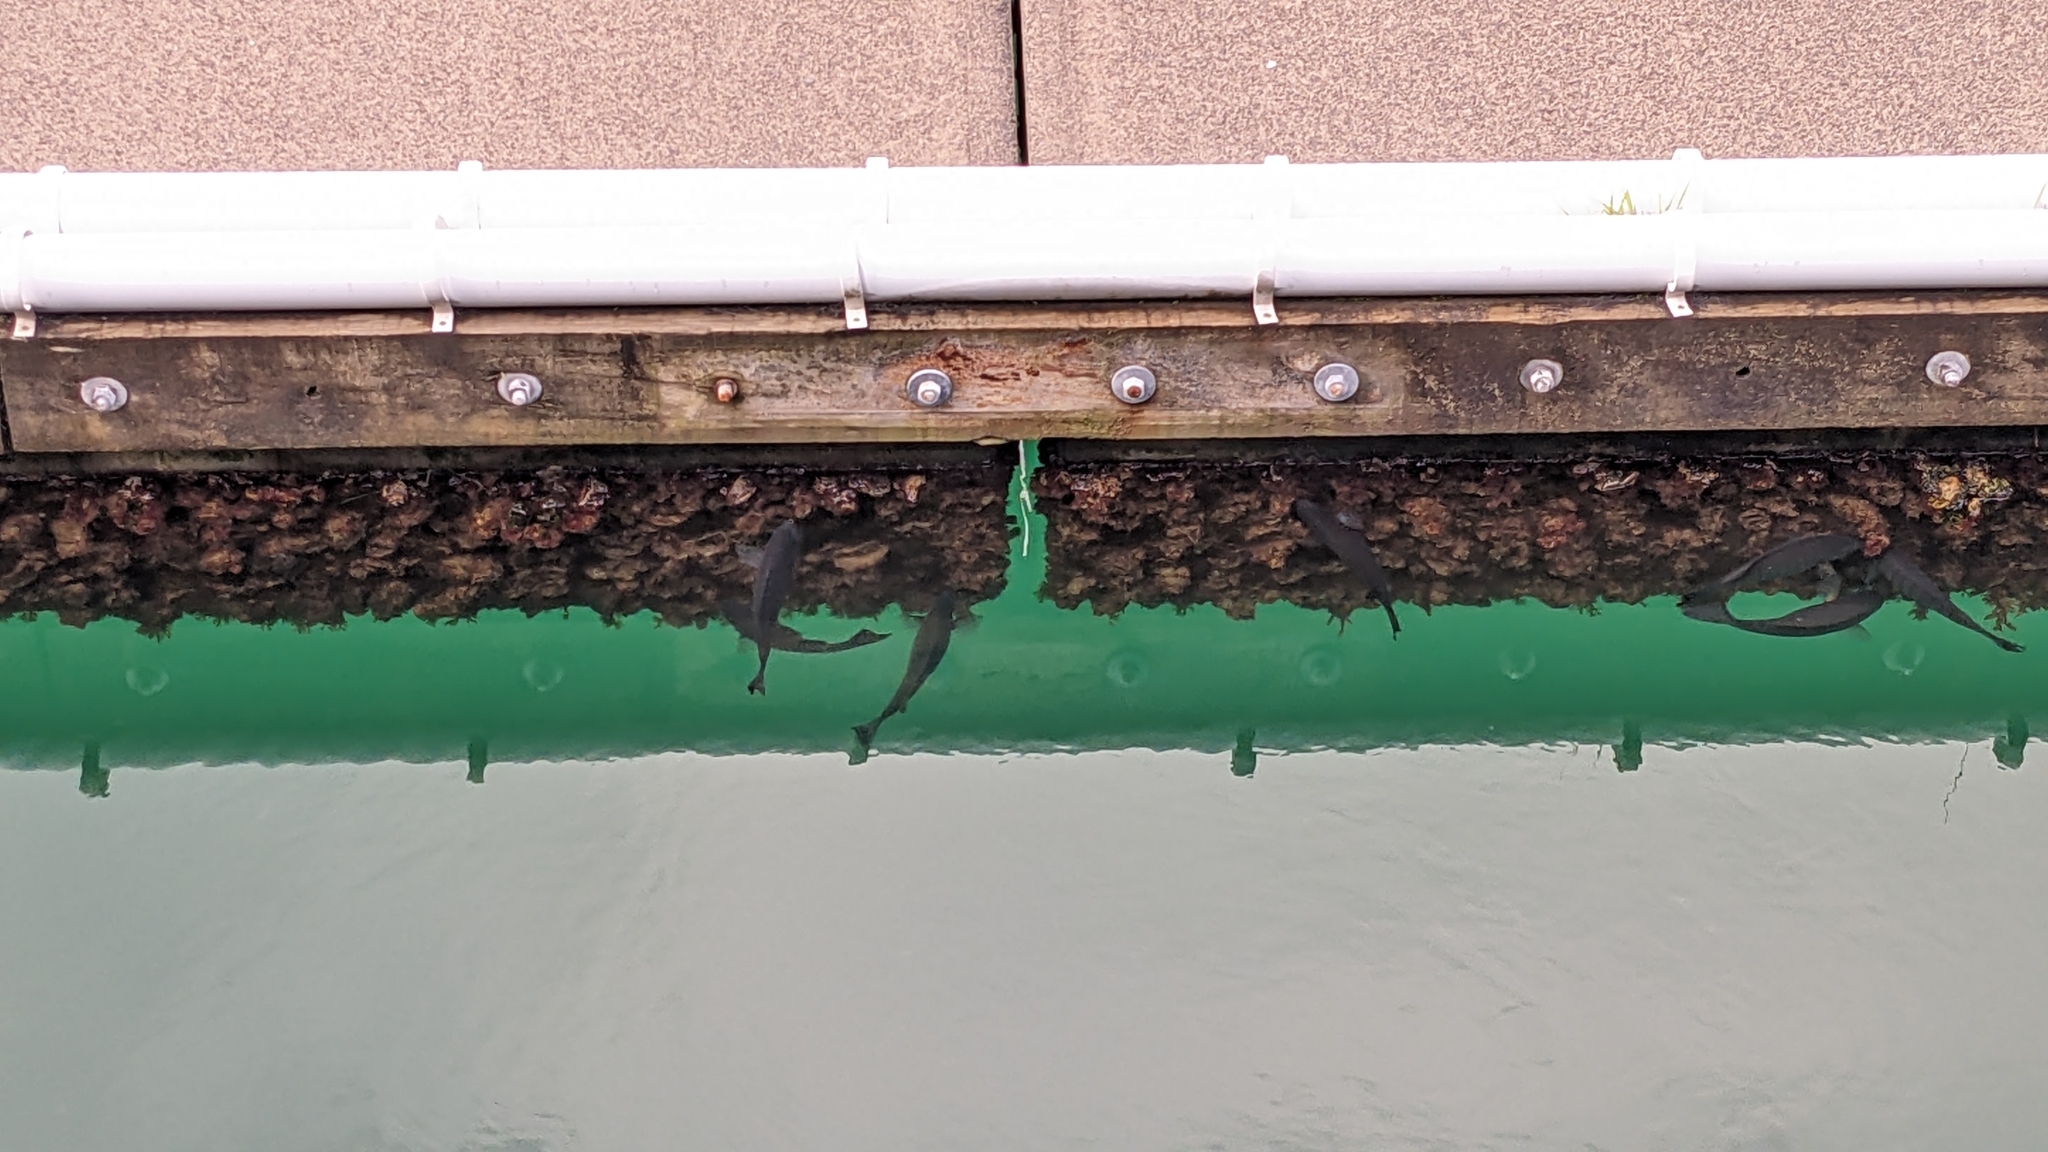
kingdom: Animalia
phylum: Chordata
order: Perciformes
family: Kyphosidae
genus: Girella
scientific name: Girella tricuspidata
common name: Parore
